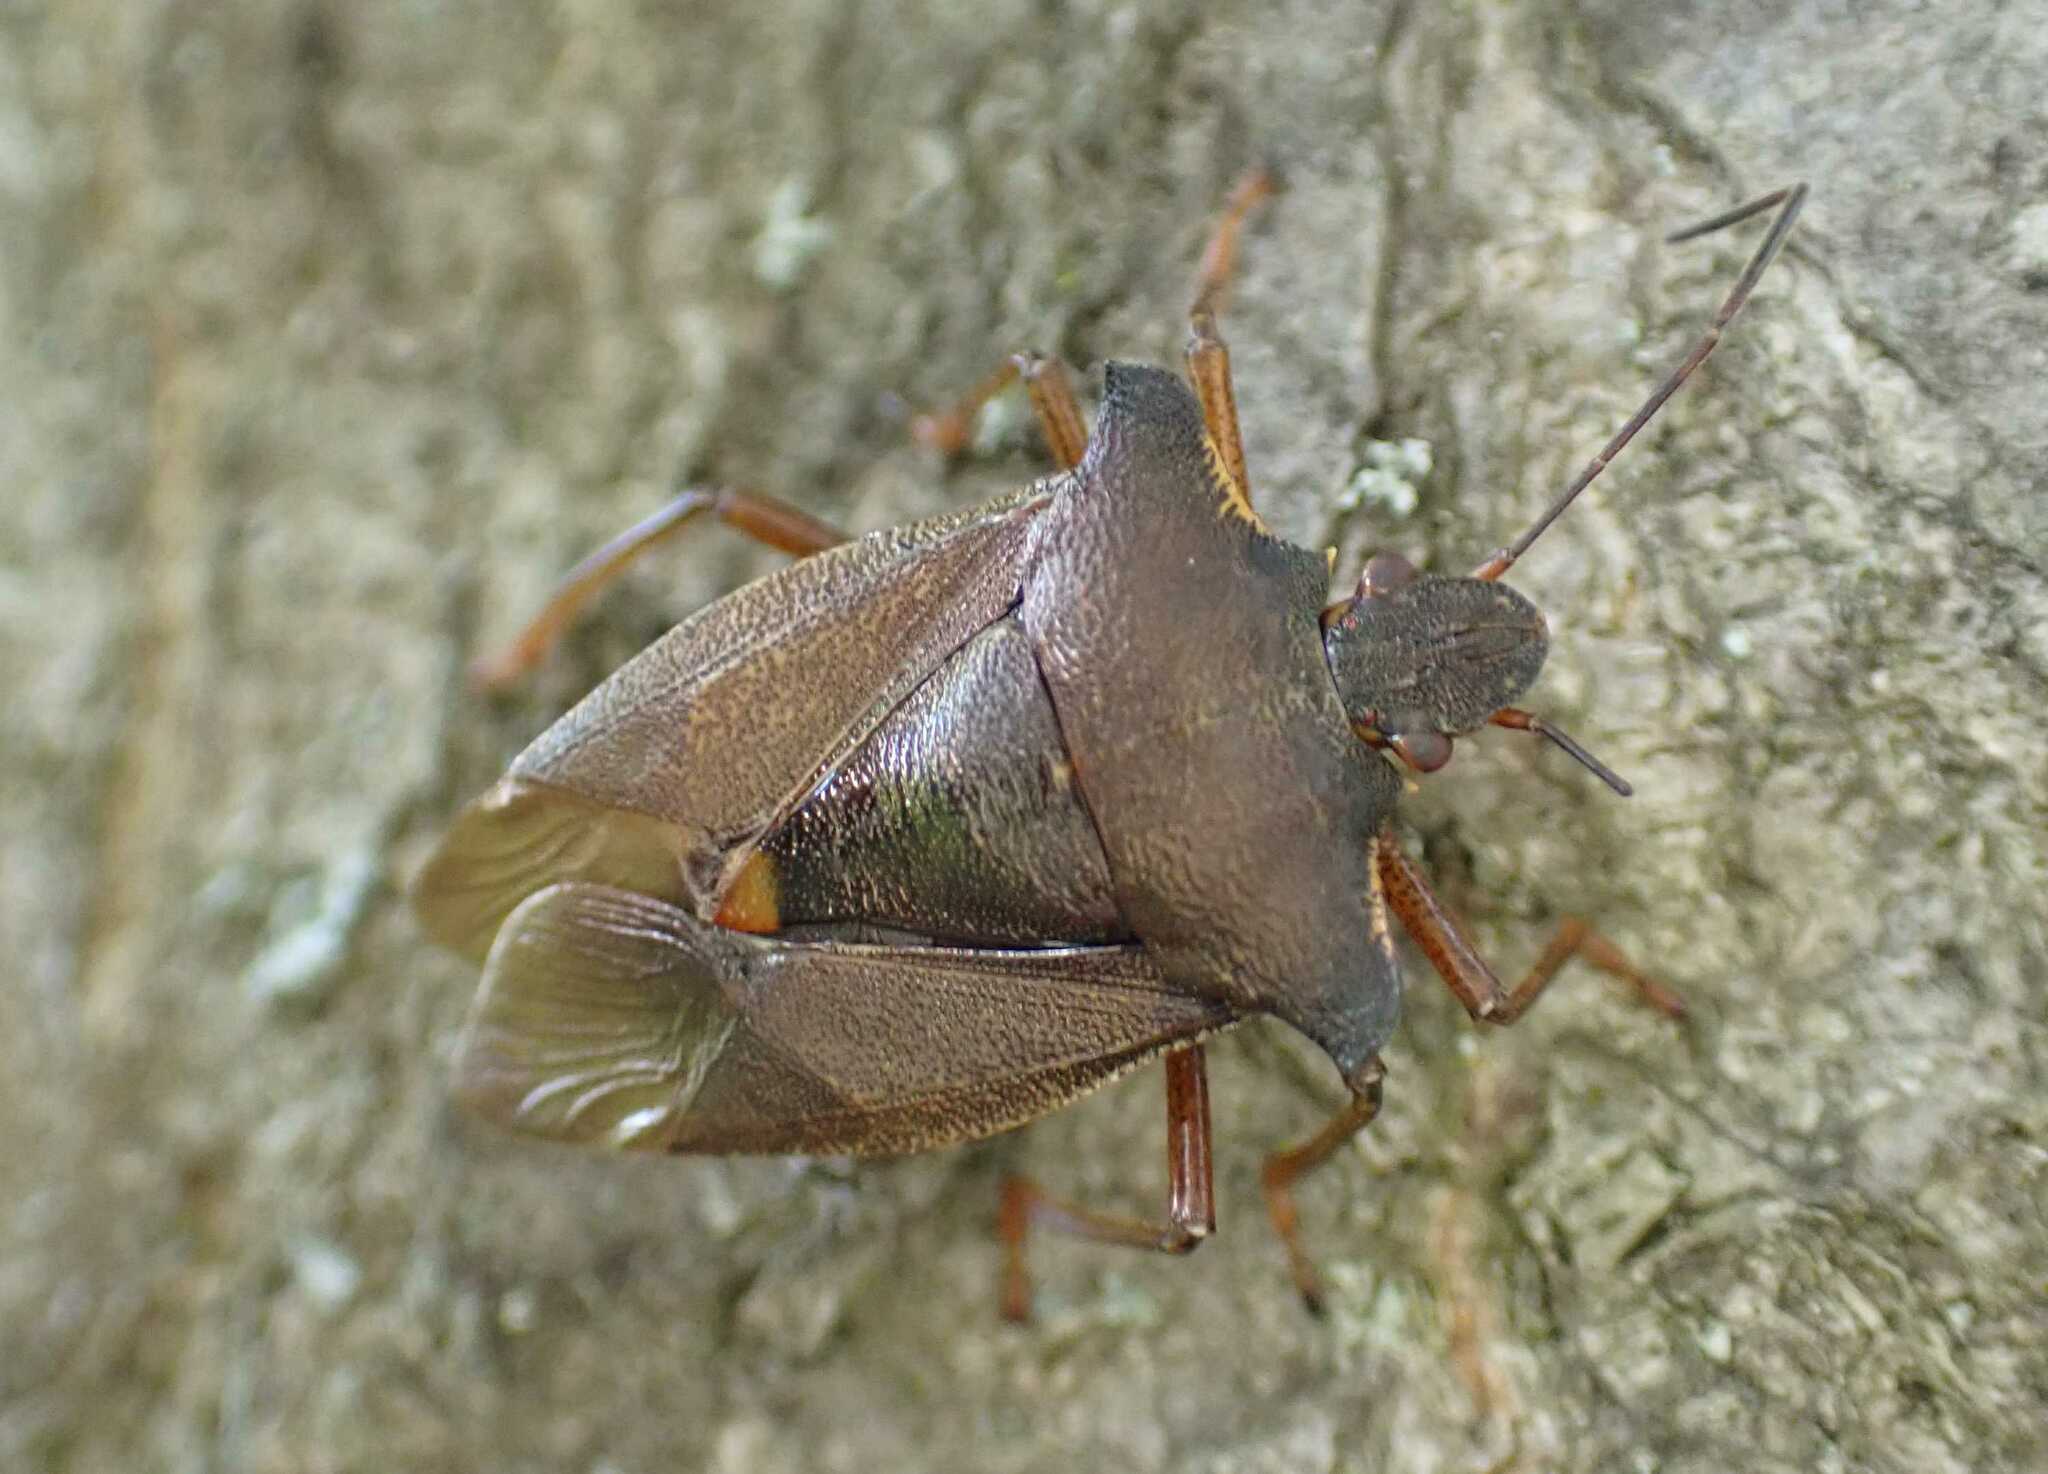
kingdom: Animalia
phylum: Arthropoda
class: Insecta
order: Hemiptera
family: Pentatomidae
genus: Pentatoma
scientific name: Pentatoma rufipes
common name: Forest bug
